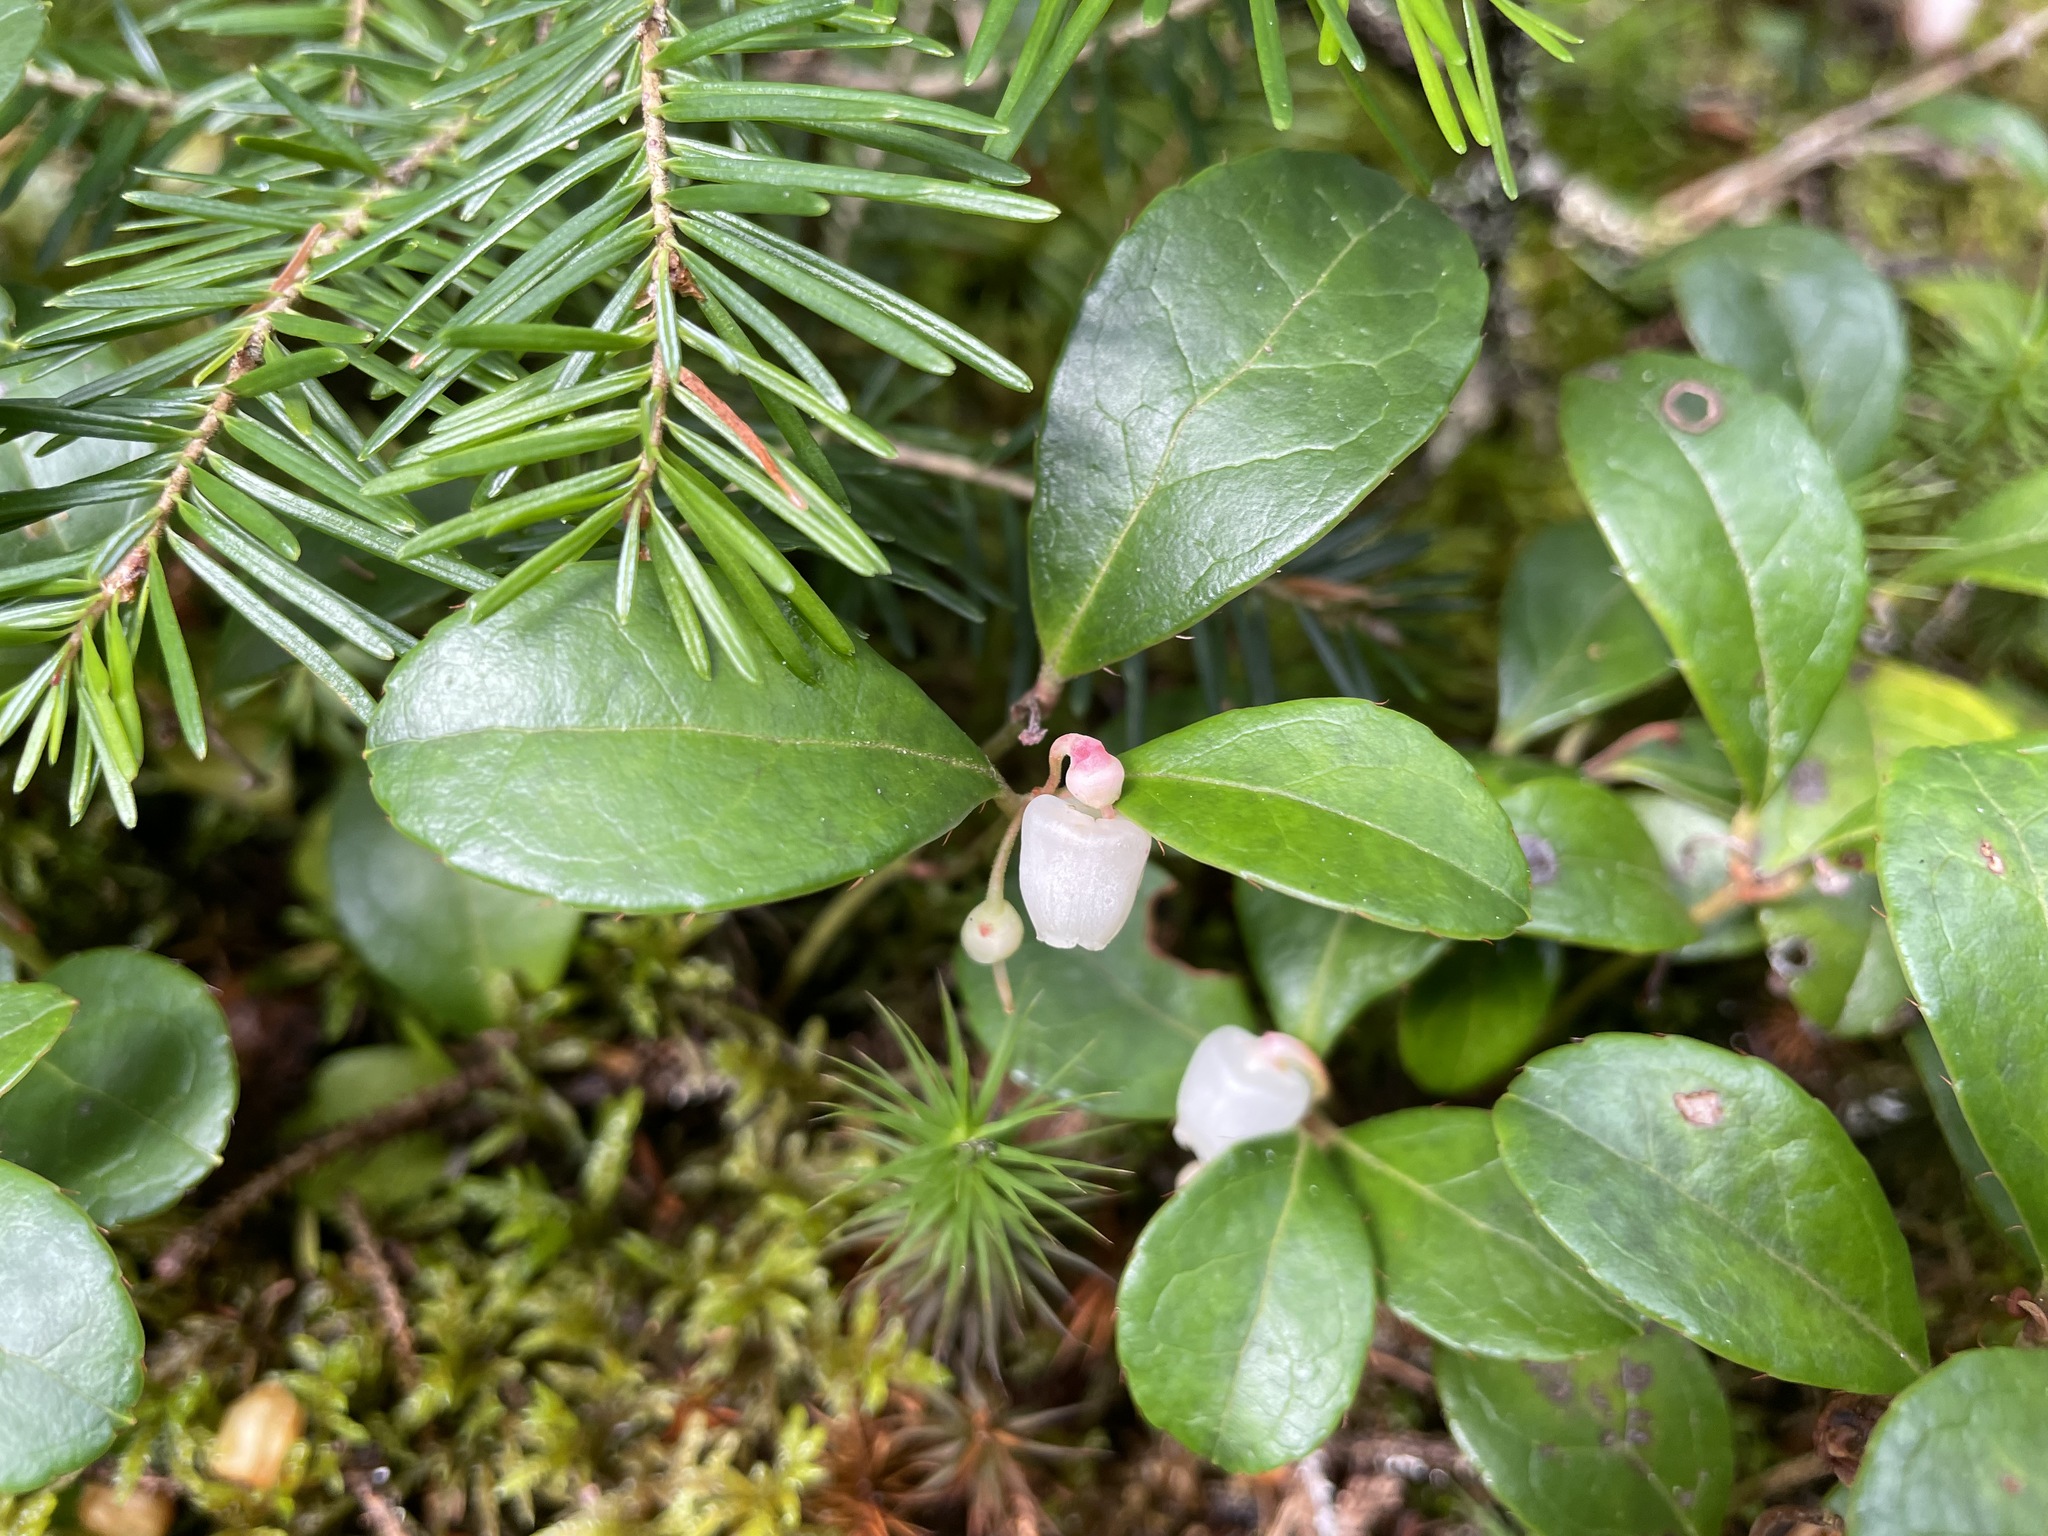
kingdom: Plantae
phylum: Tracheophyta
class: Magnoliopsida
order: Ericales
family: Ericaceae
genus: Gaultheria
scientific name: Gaultheria procumbens
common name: Checkerberry
